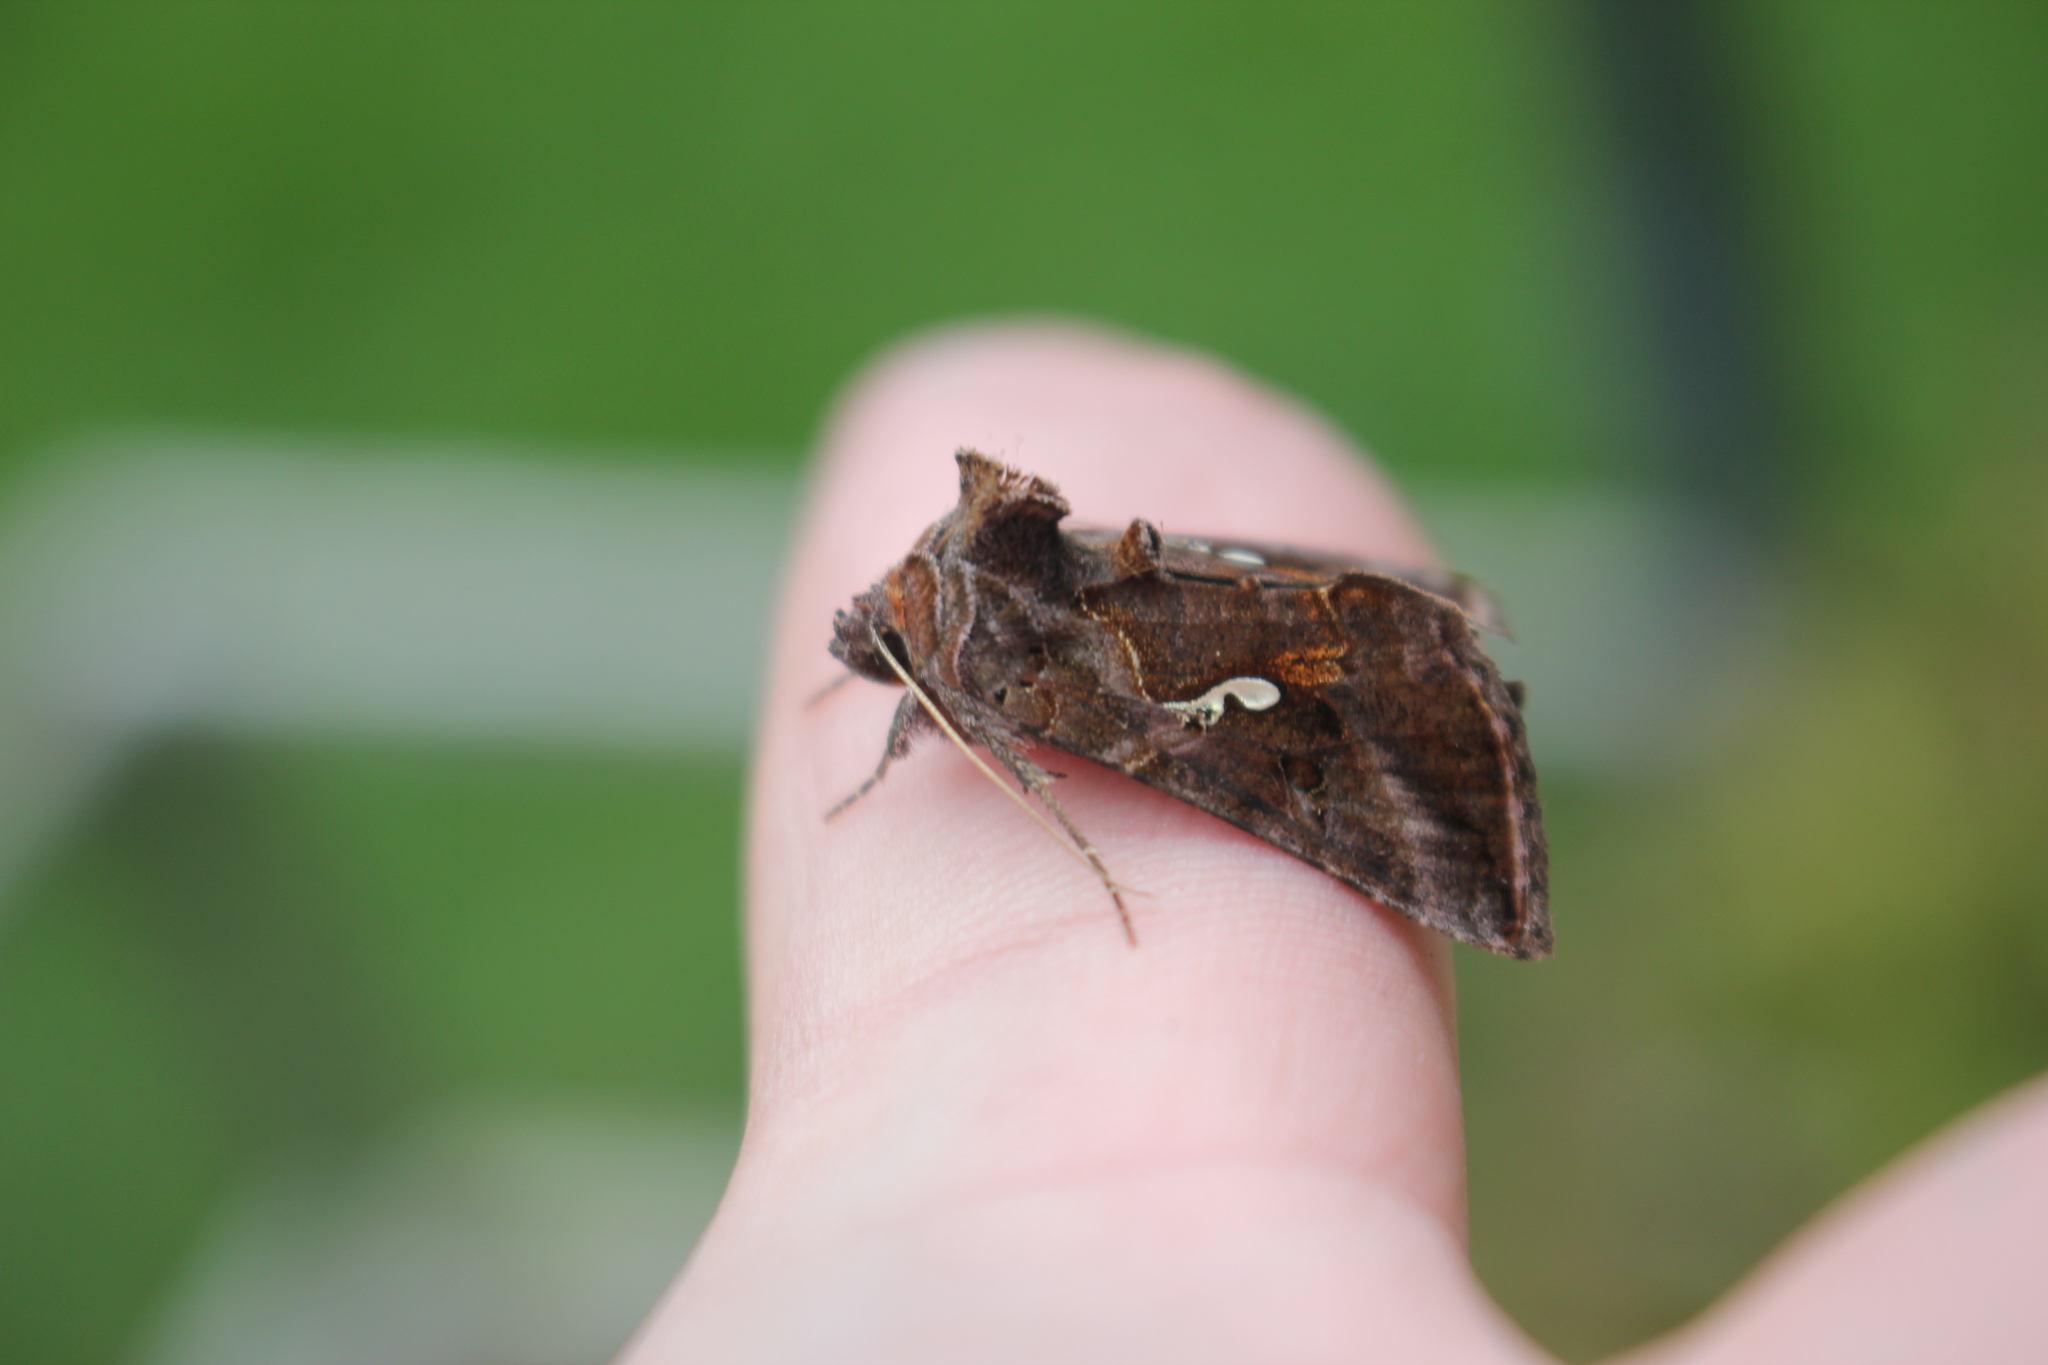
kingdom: Animalia
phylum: Arthropoda
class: Insecta
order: Lepidoptera
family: Noctuidae
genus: Autographa
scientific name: Autographa precationis
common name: Common looper moth
